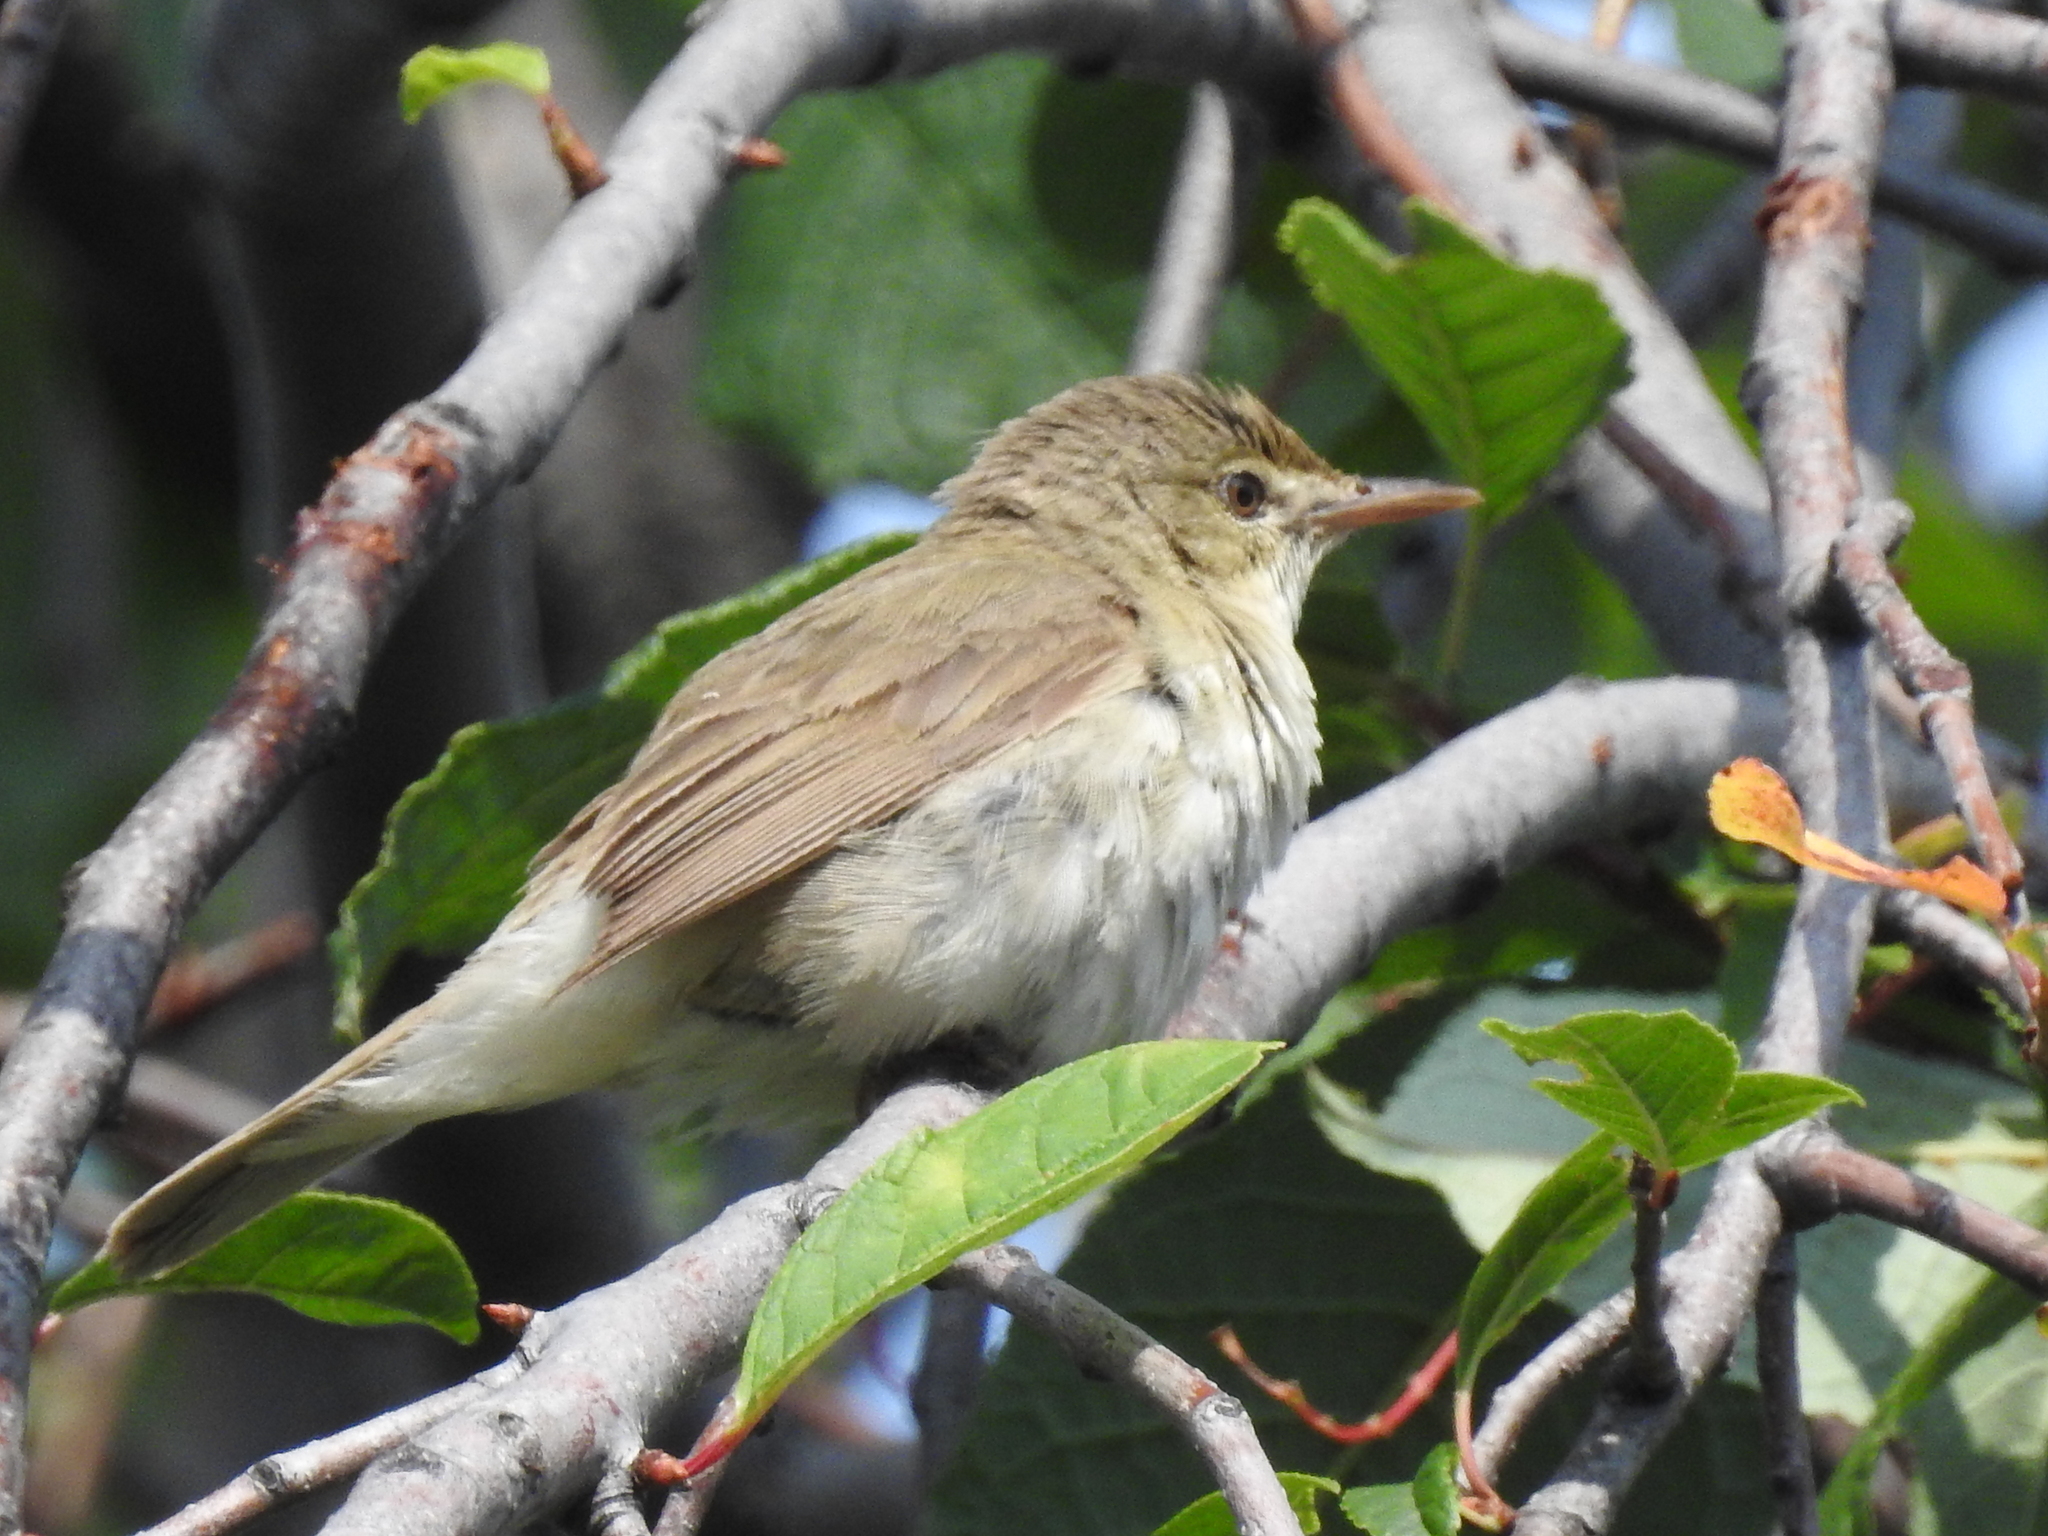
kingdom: Animalia
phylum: Chordata
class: Aves
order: Passeriformes
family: Acrocephalidae
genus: Acrocephalus
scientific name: Acrocephalus dumetorum
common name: Blyth's reed warbler
